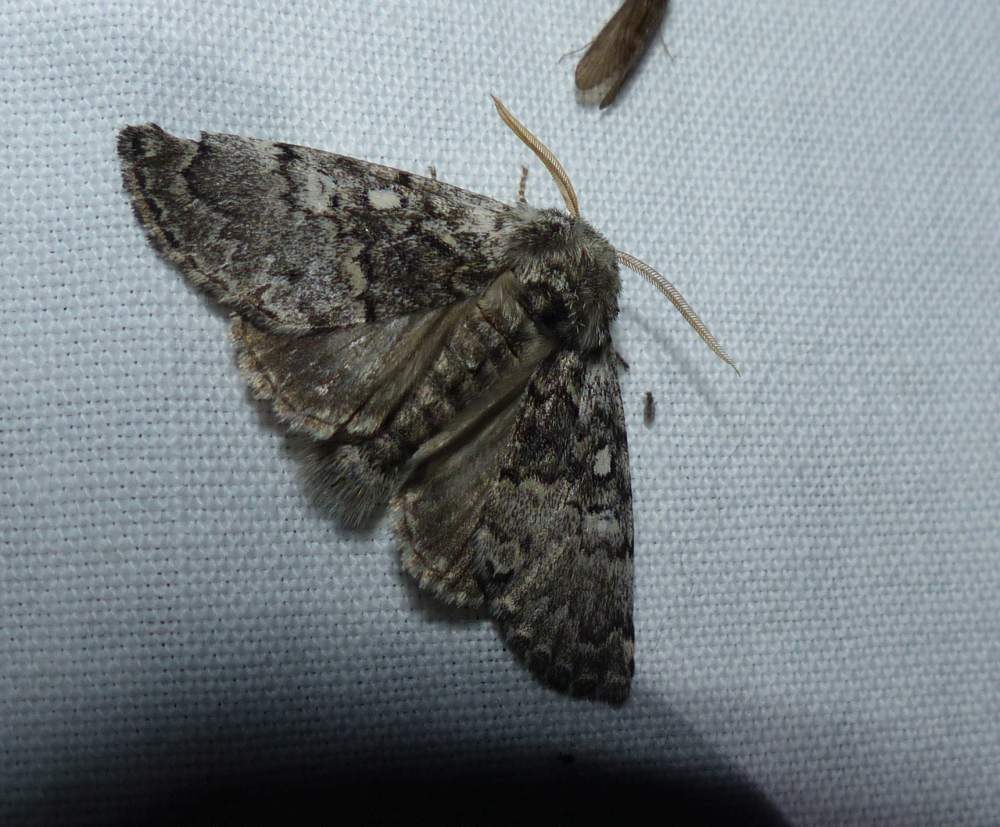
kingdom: Animalia
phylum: Arthropoda
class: Insecta
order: Lepidoptera
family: Noctuidae
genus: Colocasia
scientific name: Colocasia propinquilinea
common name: Close-banded demas
